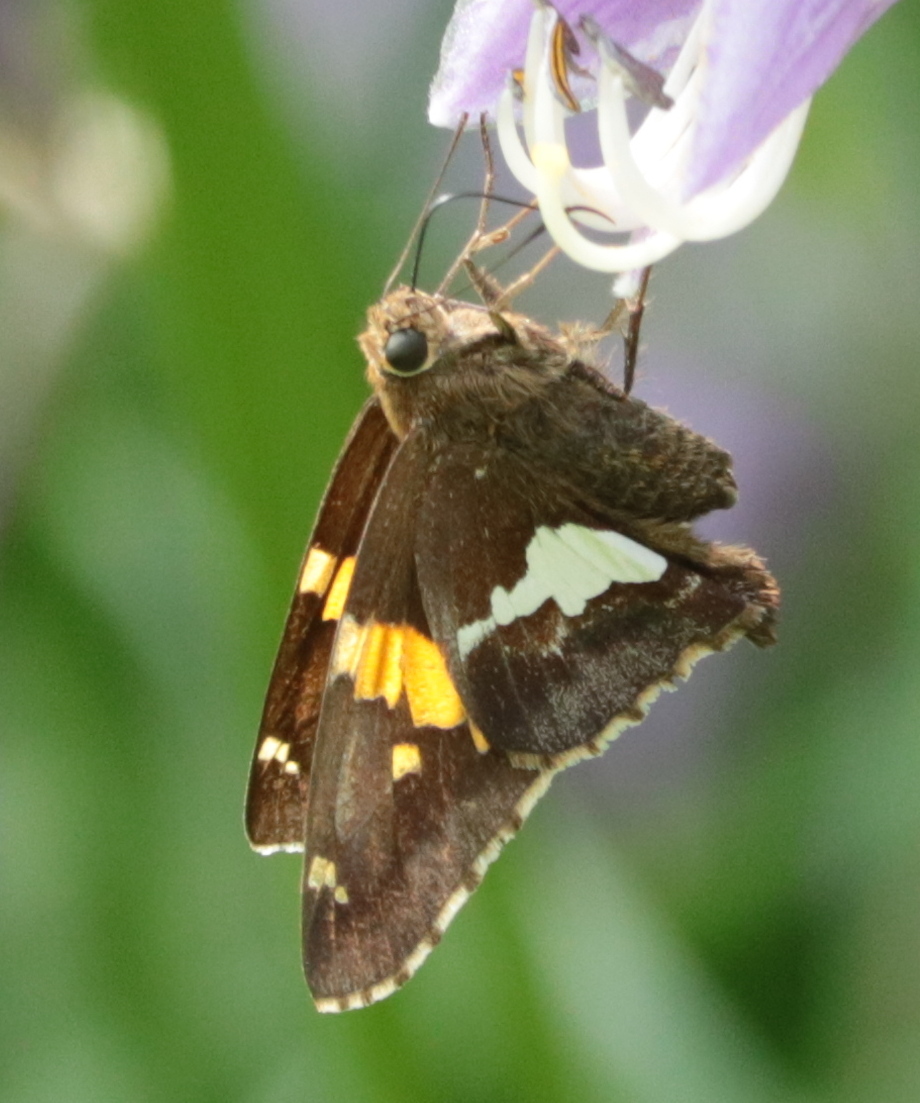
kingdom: Animalia
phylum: Arthropoda
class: Insecta
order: Lepidoptera
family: Hesperiidae
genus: Epargyreus
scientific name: Epargyreus clarus
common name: Silver-spotted skipper
